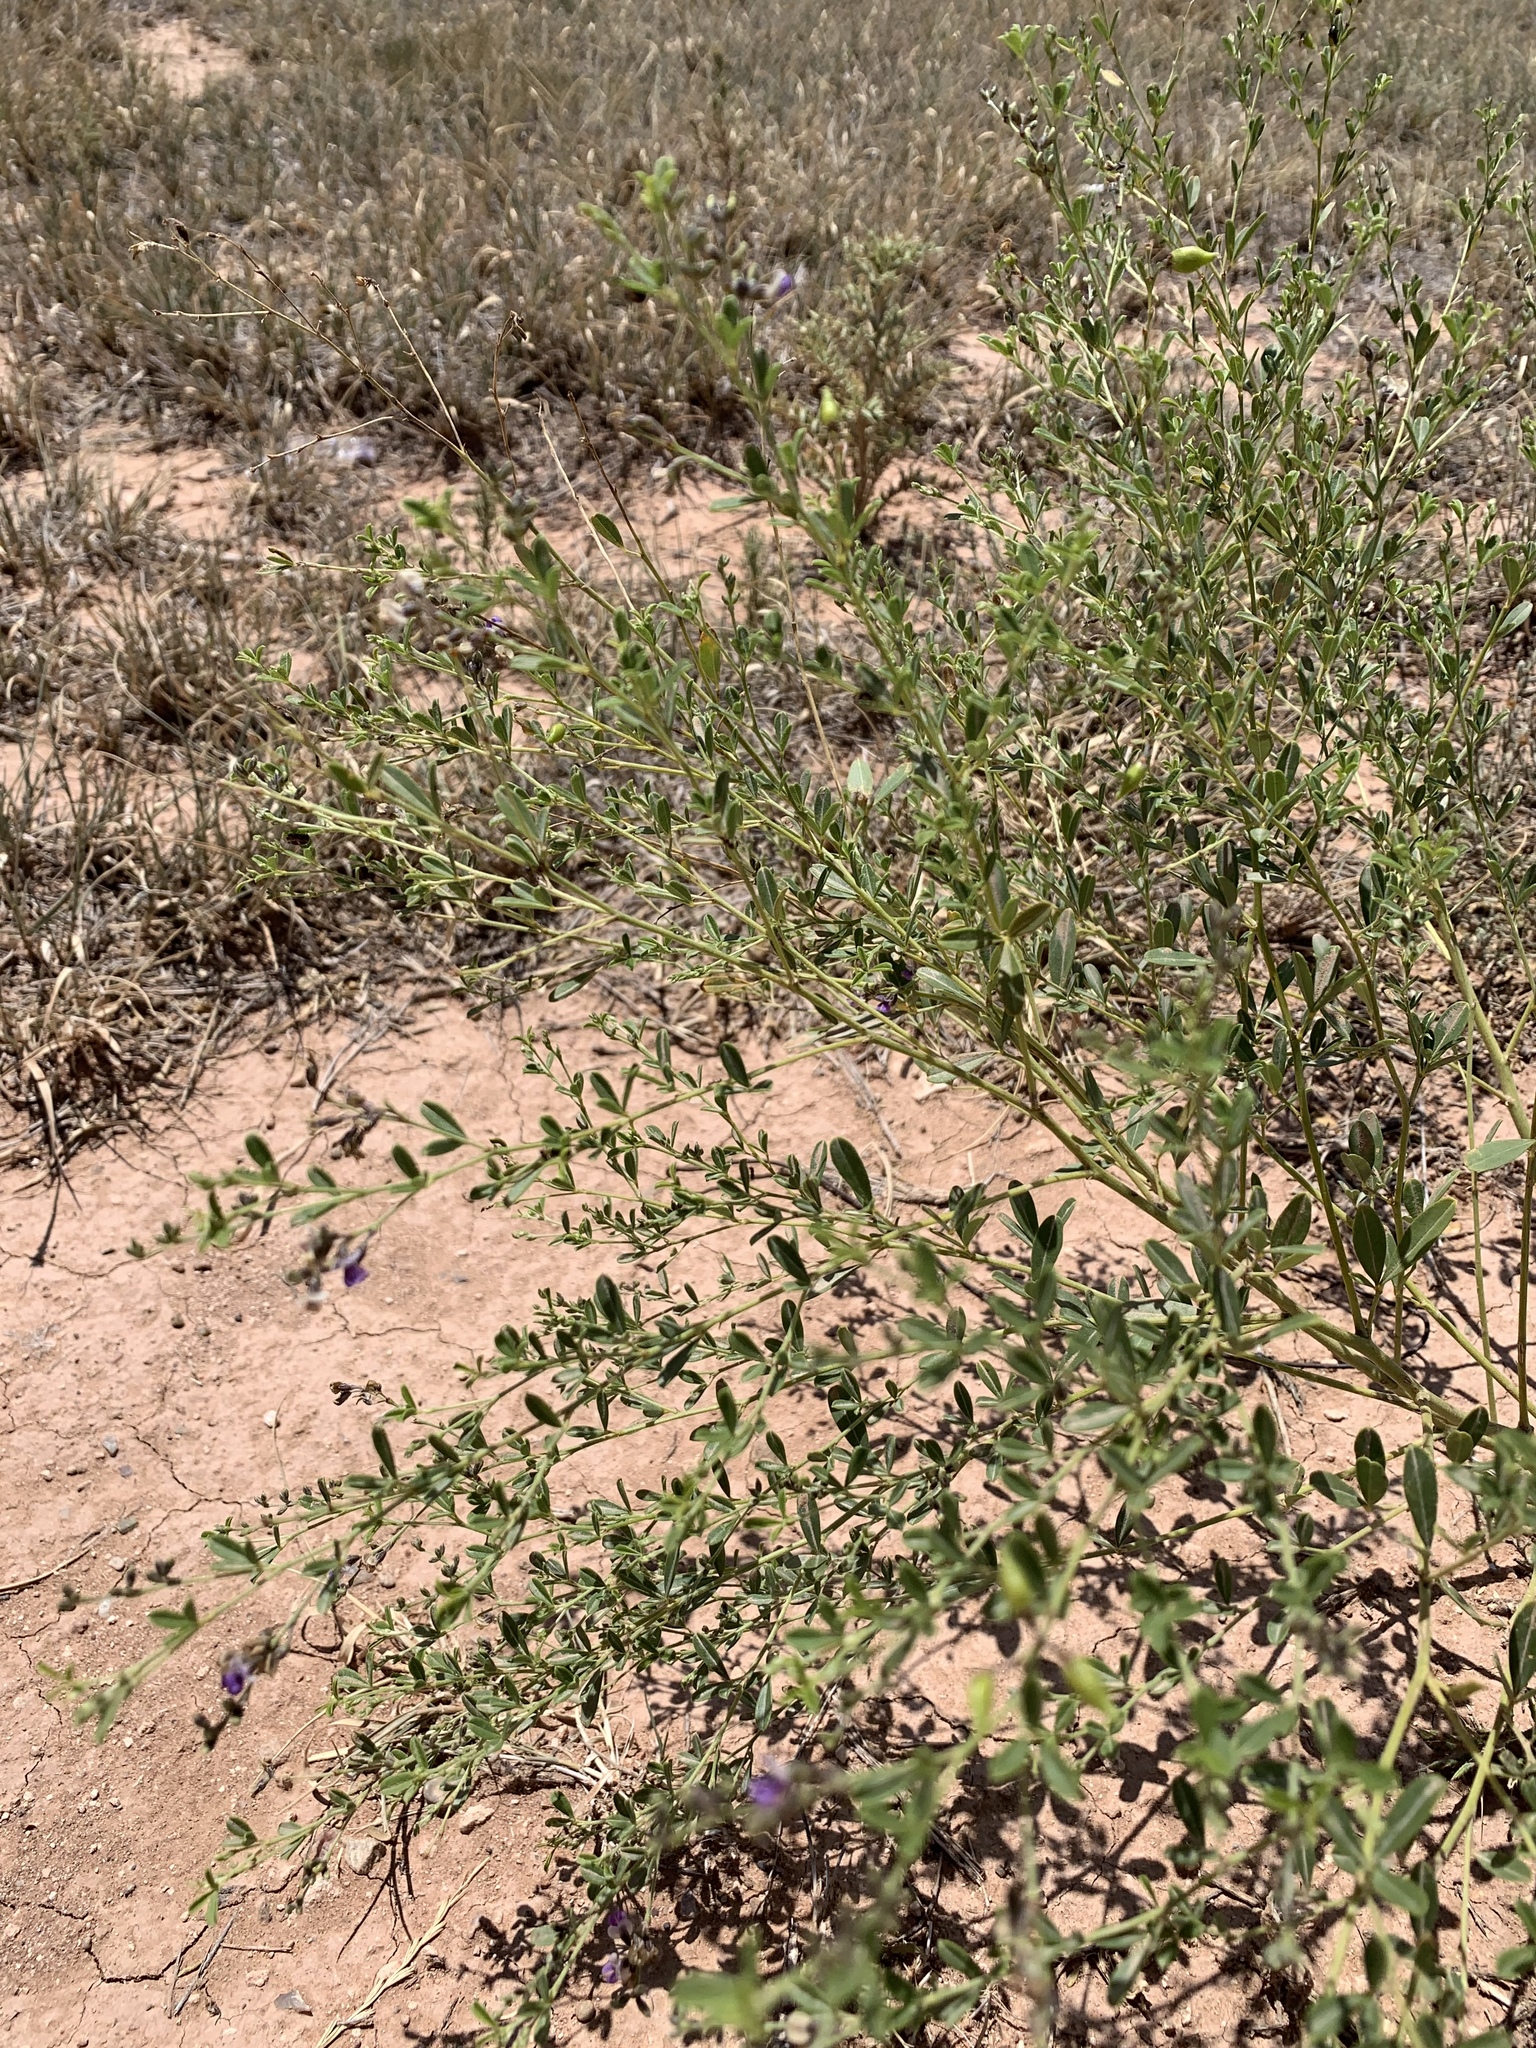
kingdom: Plantae
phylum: Tracheophyta
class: Magnoliopsida
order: Fabales
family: Fabaceae
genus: Pediomelum
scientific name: Pediomelum tenuiflorum
